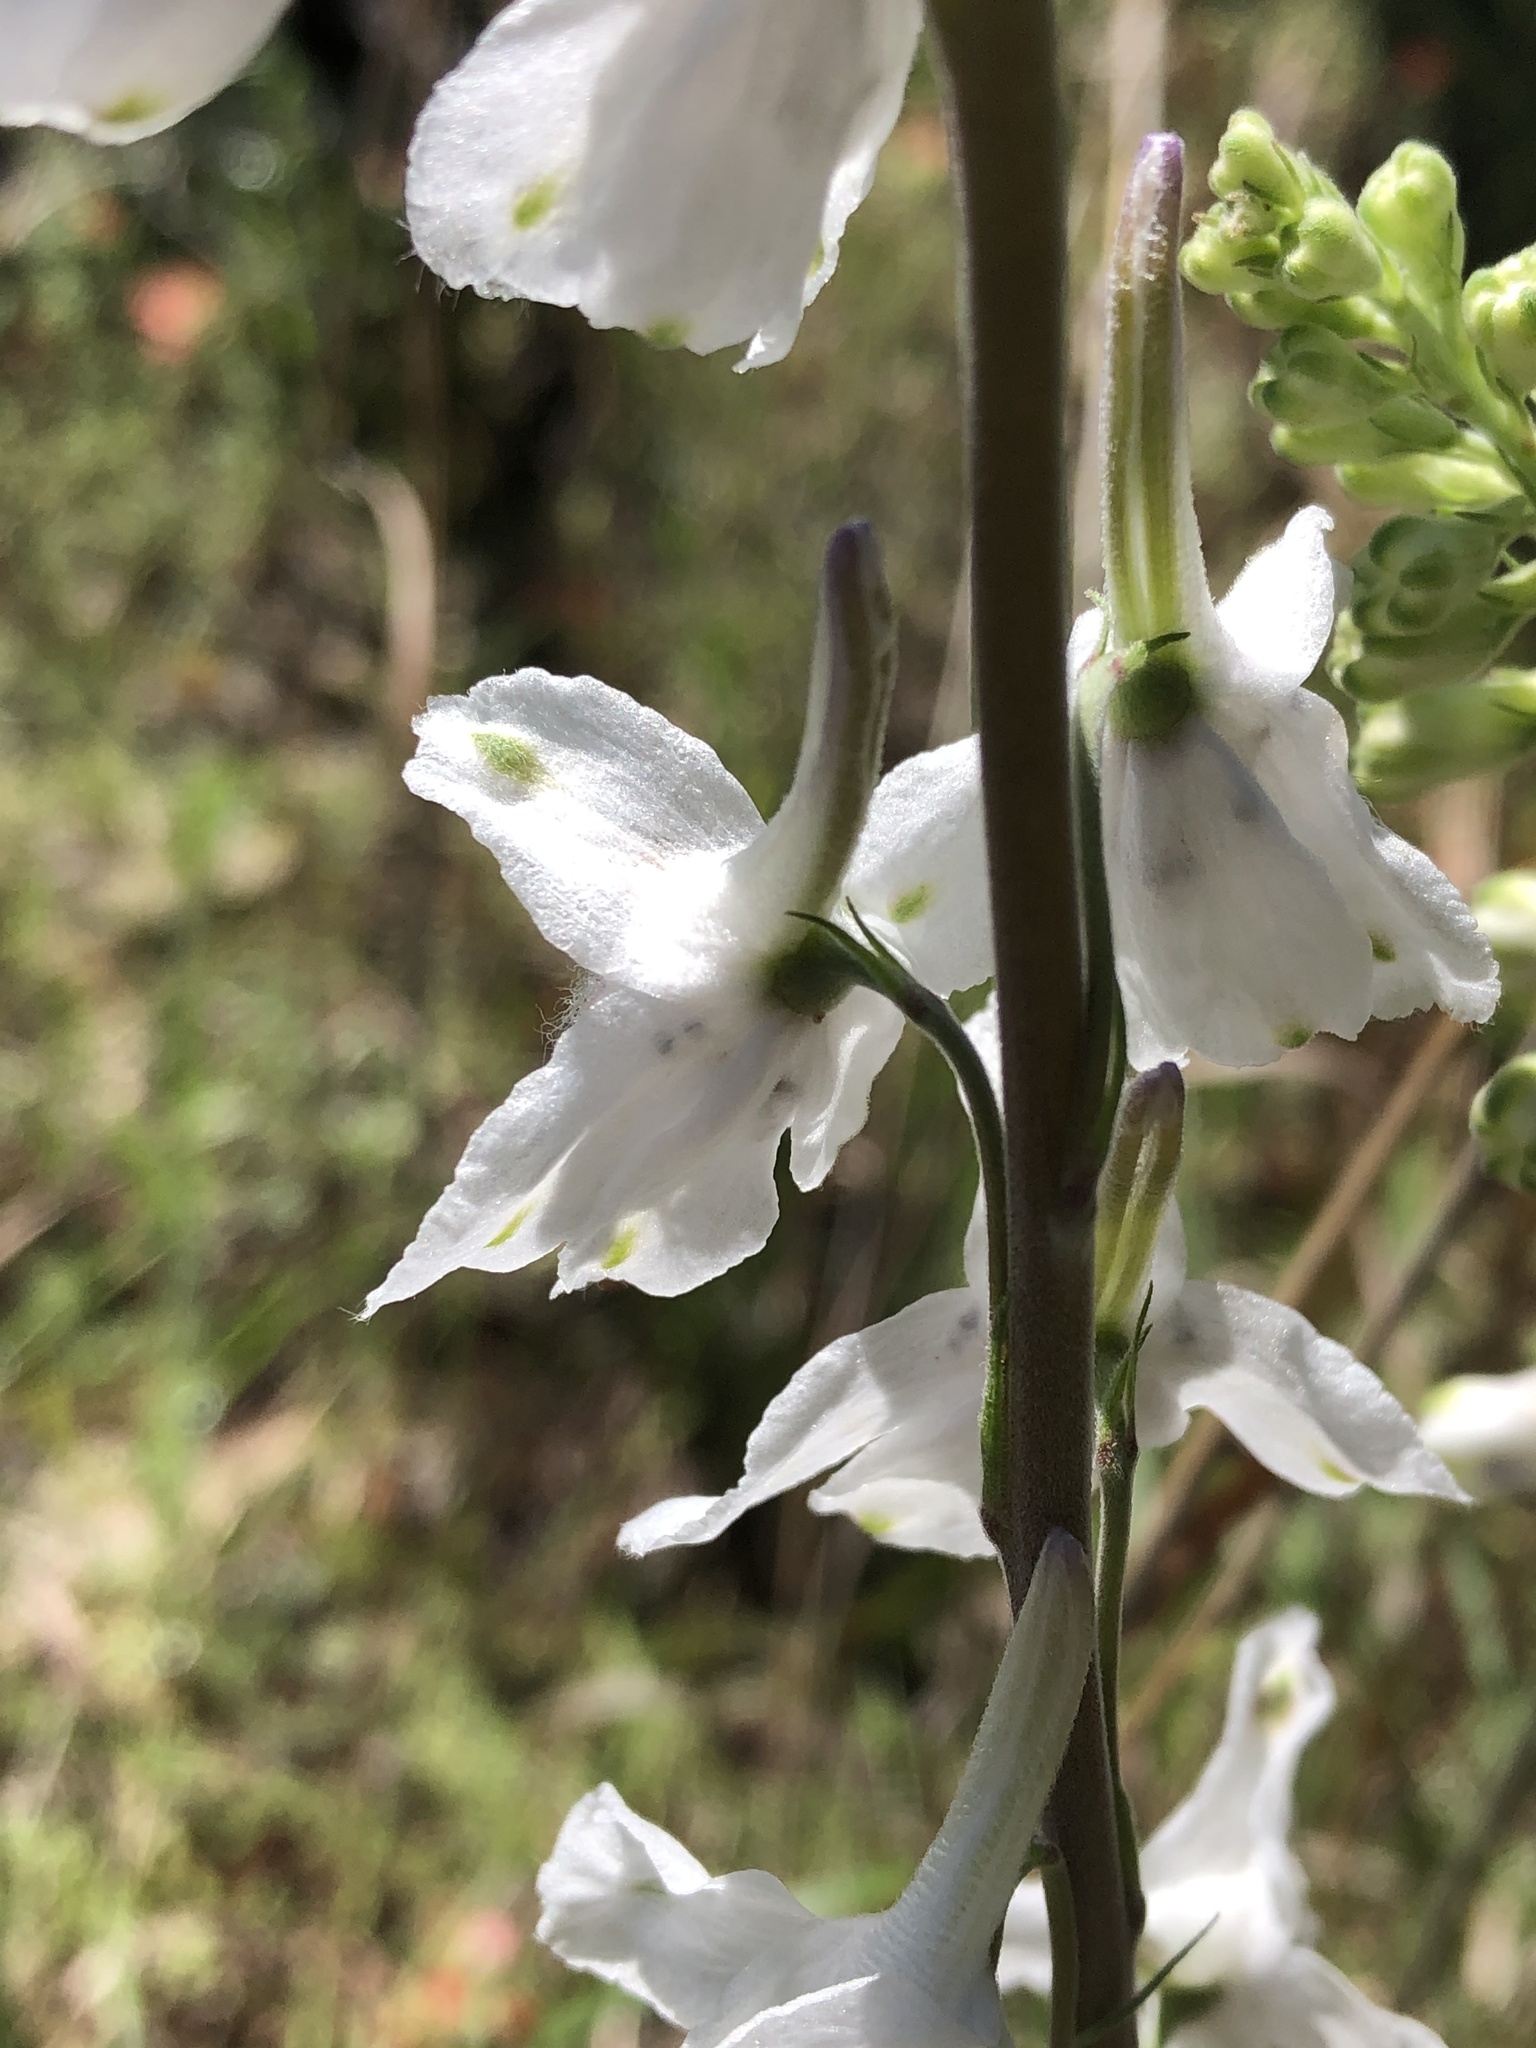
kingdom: Plantae
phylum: Tracheophyta
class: Magnoliopsida
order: Ranunculales
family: Ranunculaceae
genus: Delphinium
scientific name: Delphinium carolinianum
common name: Carolina larkspur
